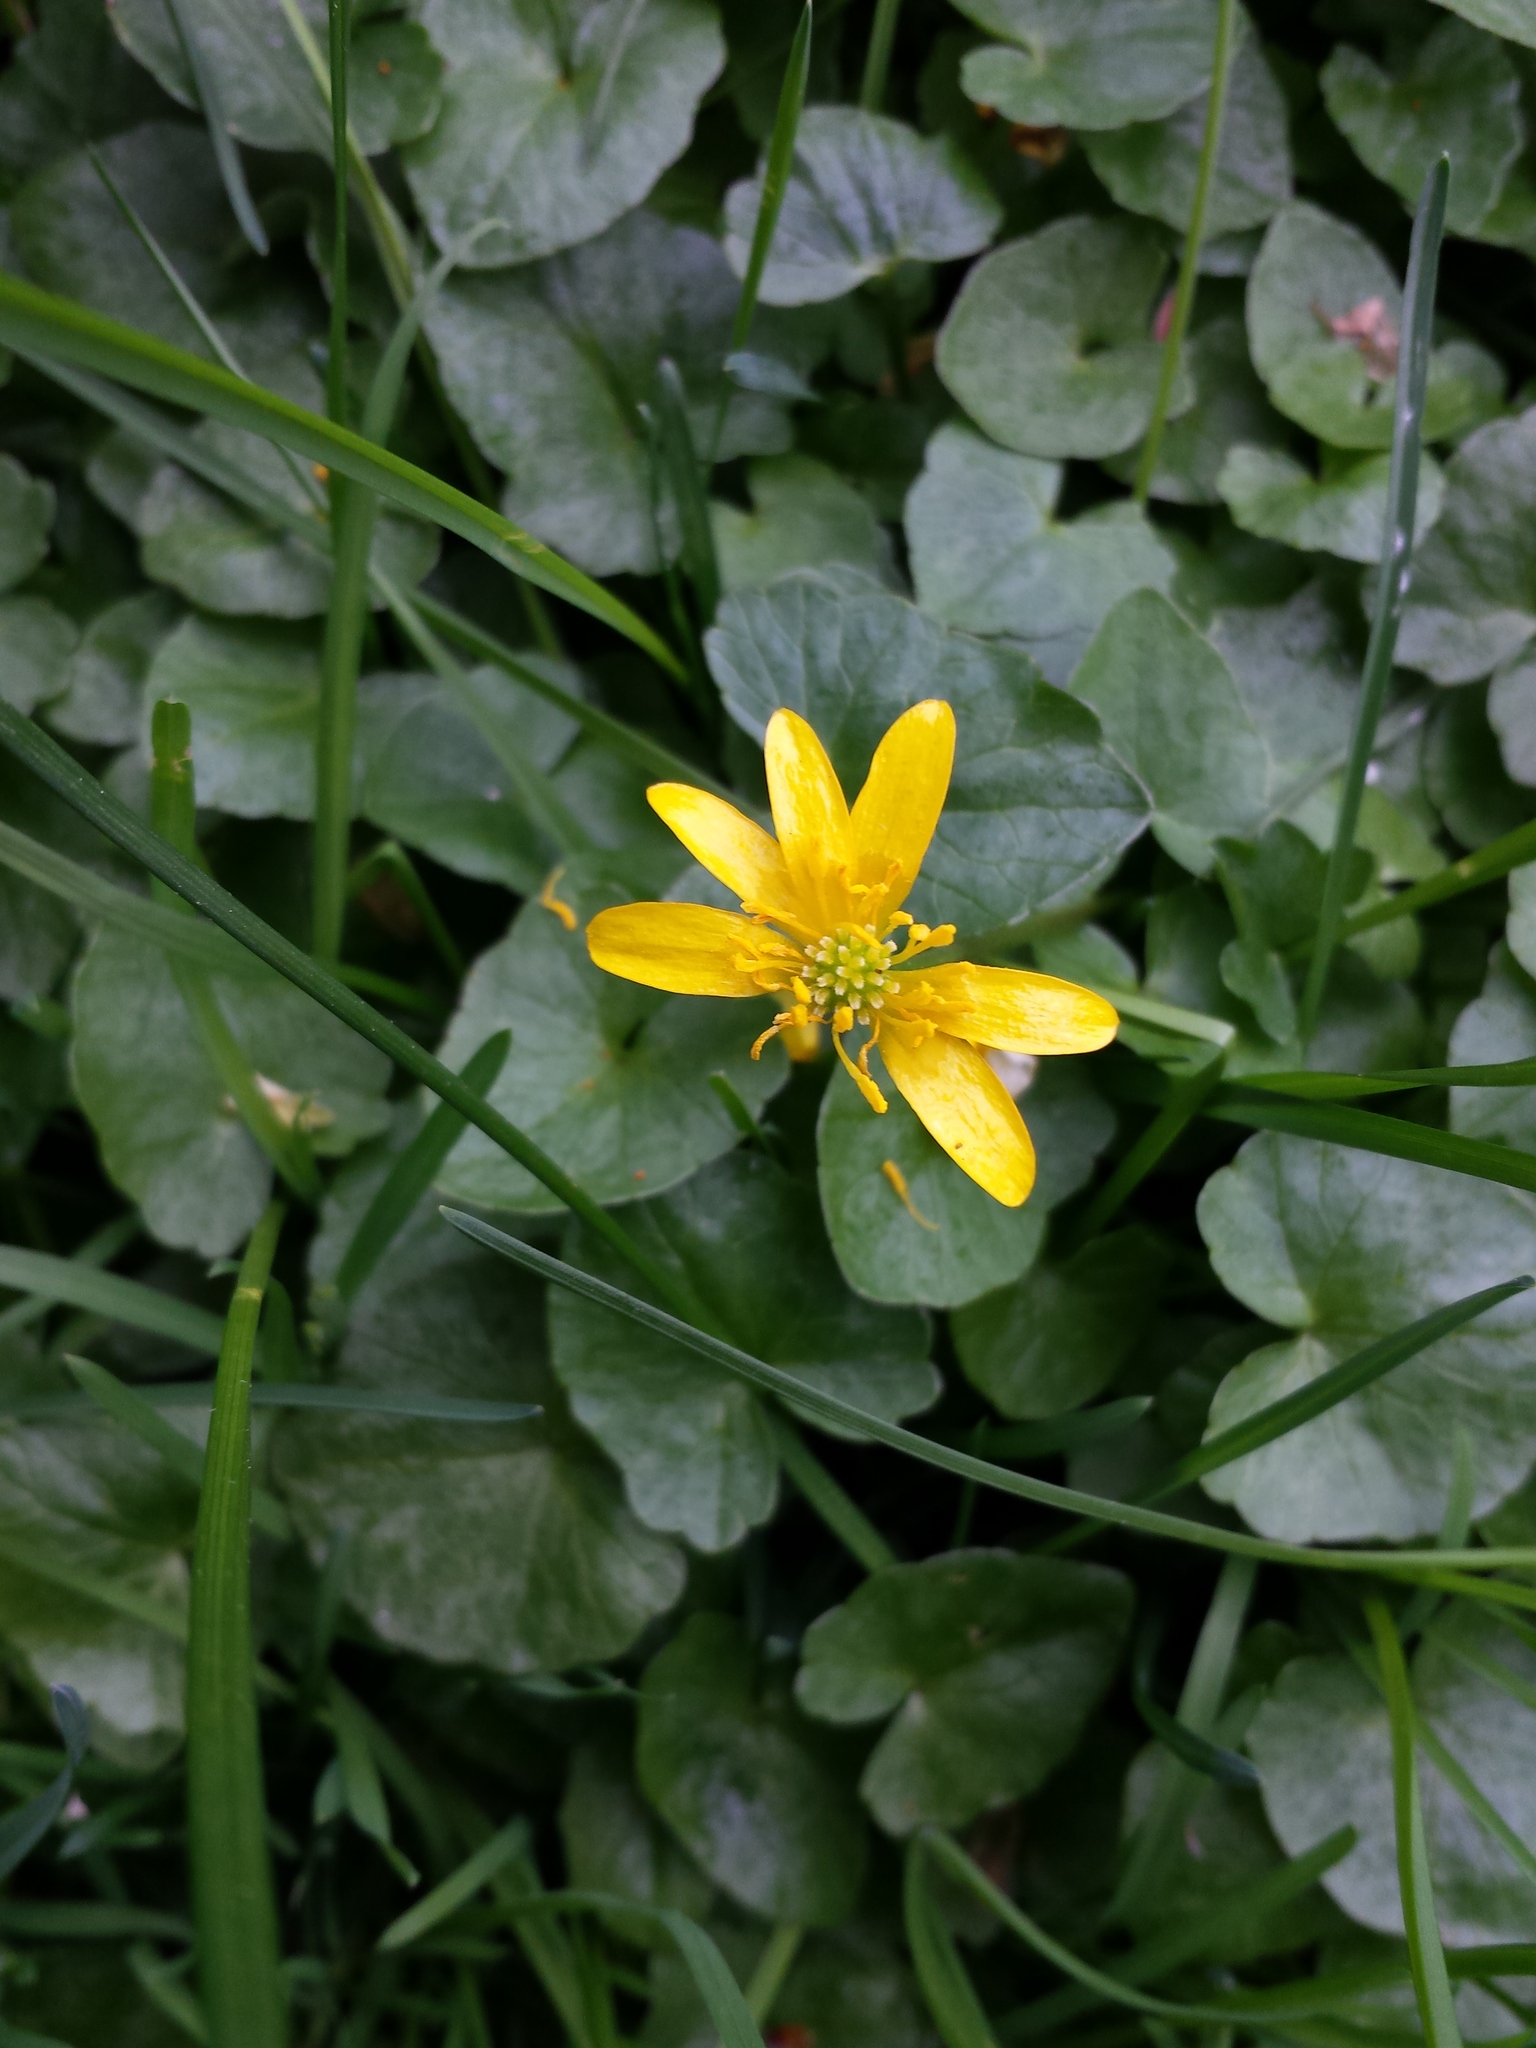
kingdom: Plantae
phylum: Tracheophyta
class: Magnoliopsida
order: Ranunculales
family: Ranunculaceae
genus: Ficaria
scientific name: Ficaria verna
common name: Lesser celandine
